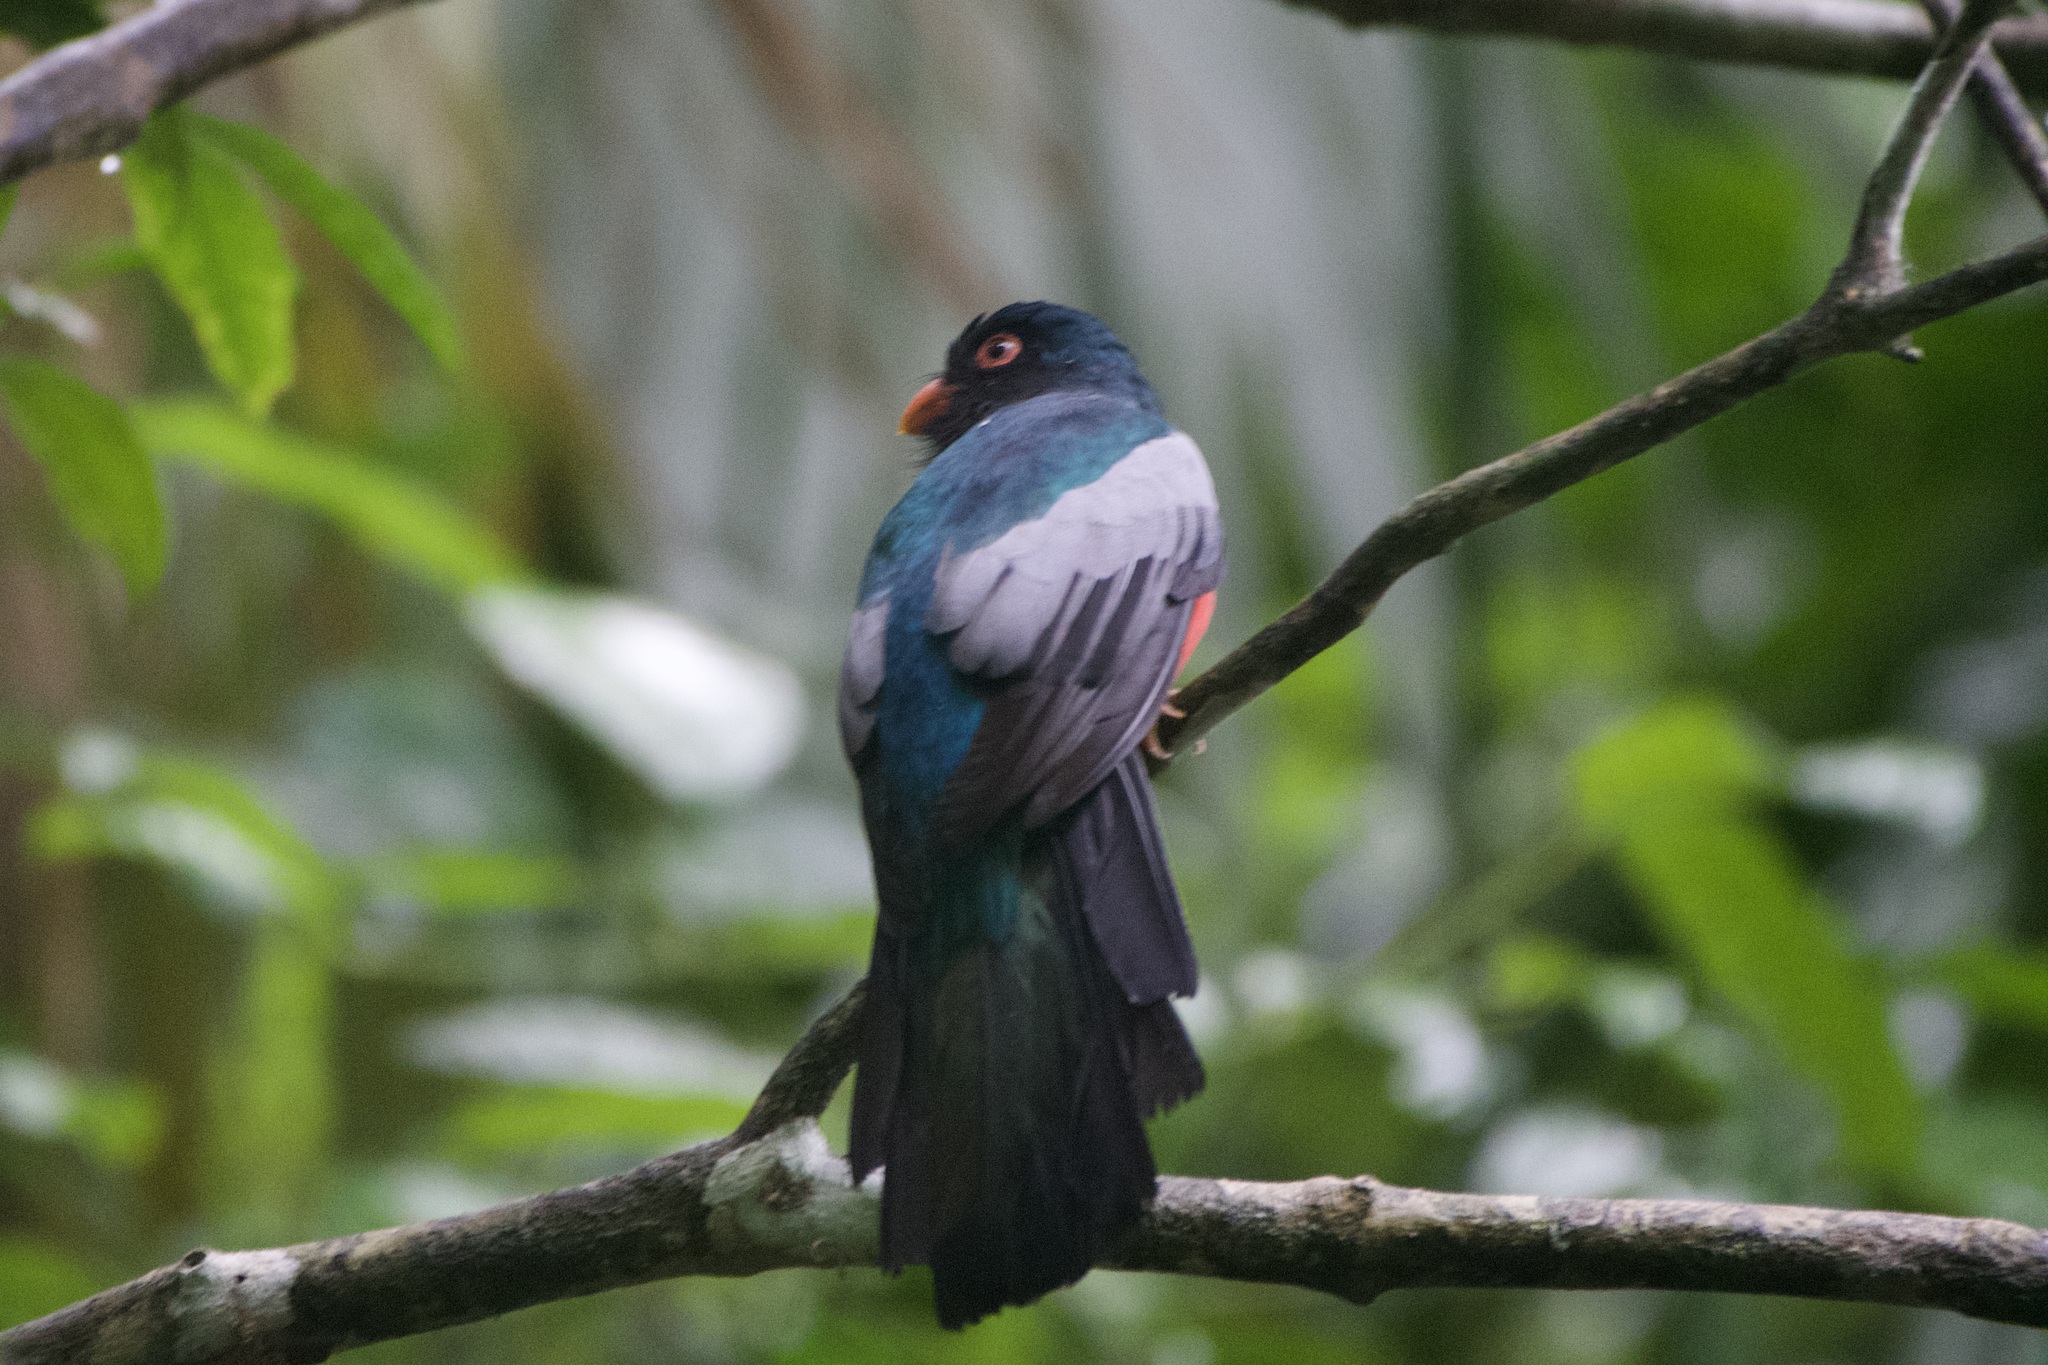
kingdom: Animalia
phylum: Chordata
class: Aves
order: Trogoniformes
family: Trogonidae
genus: Trogon
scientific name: Trogon massena
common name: Slaty-tailed trogon
